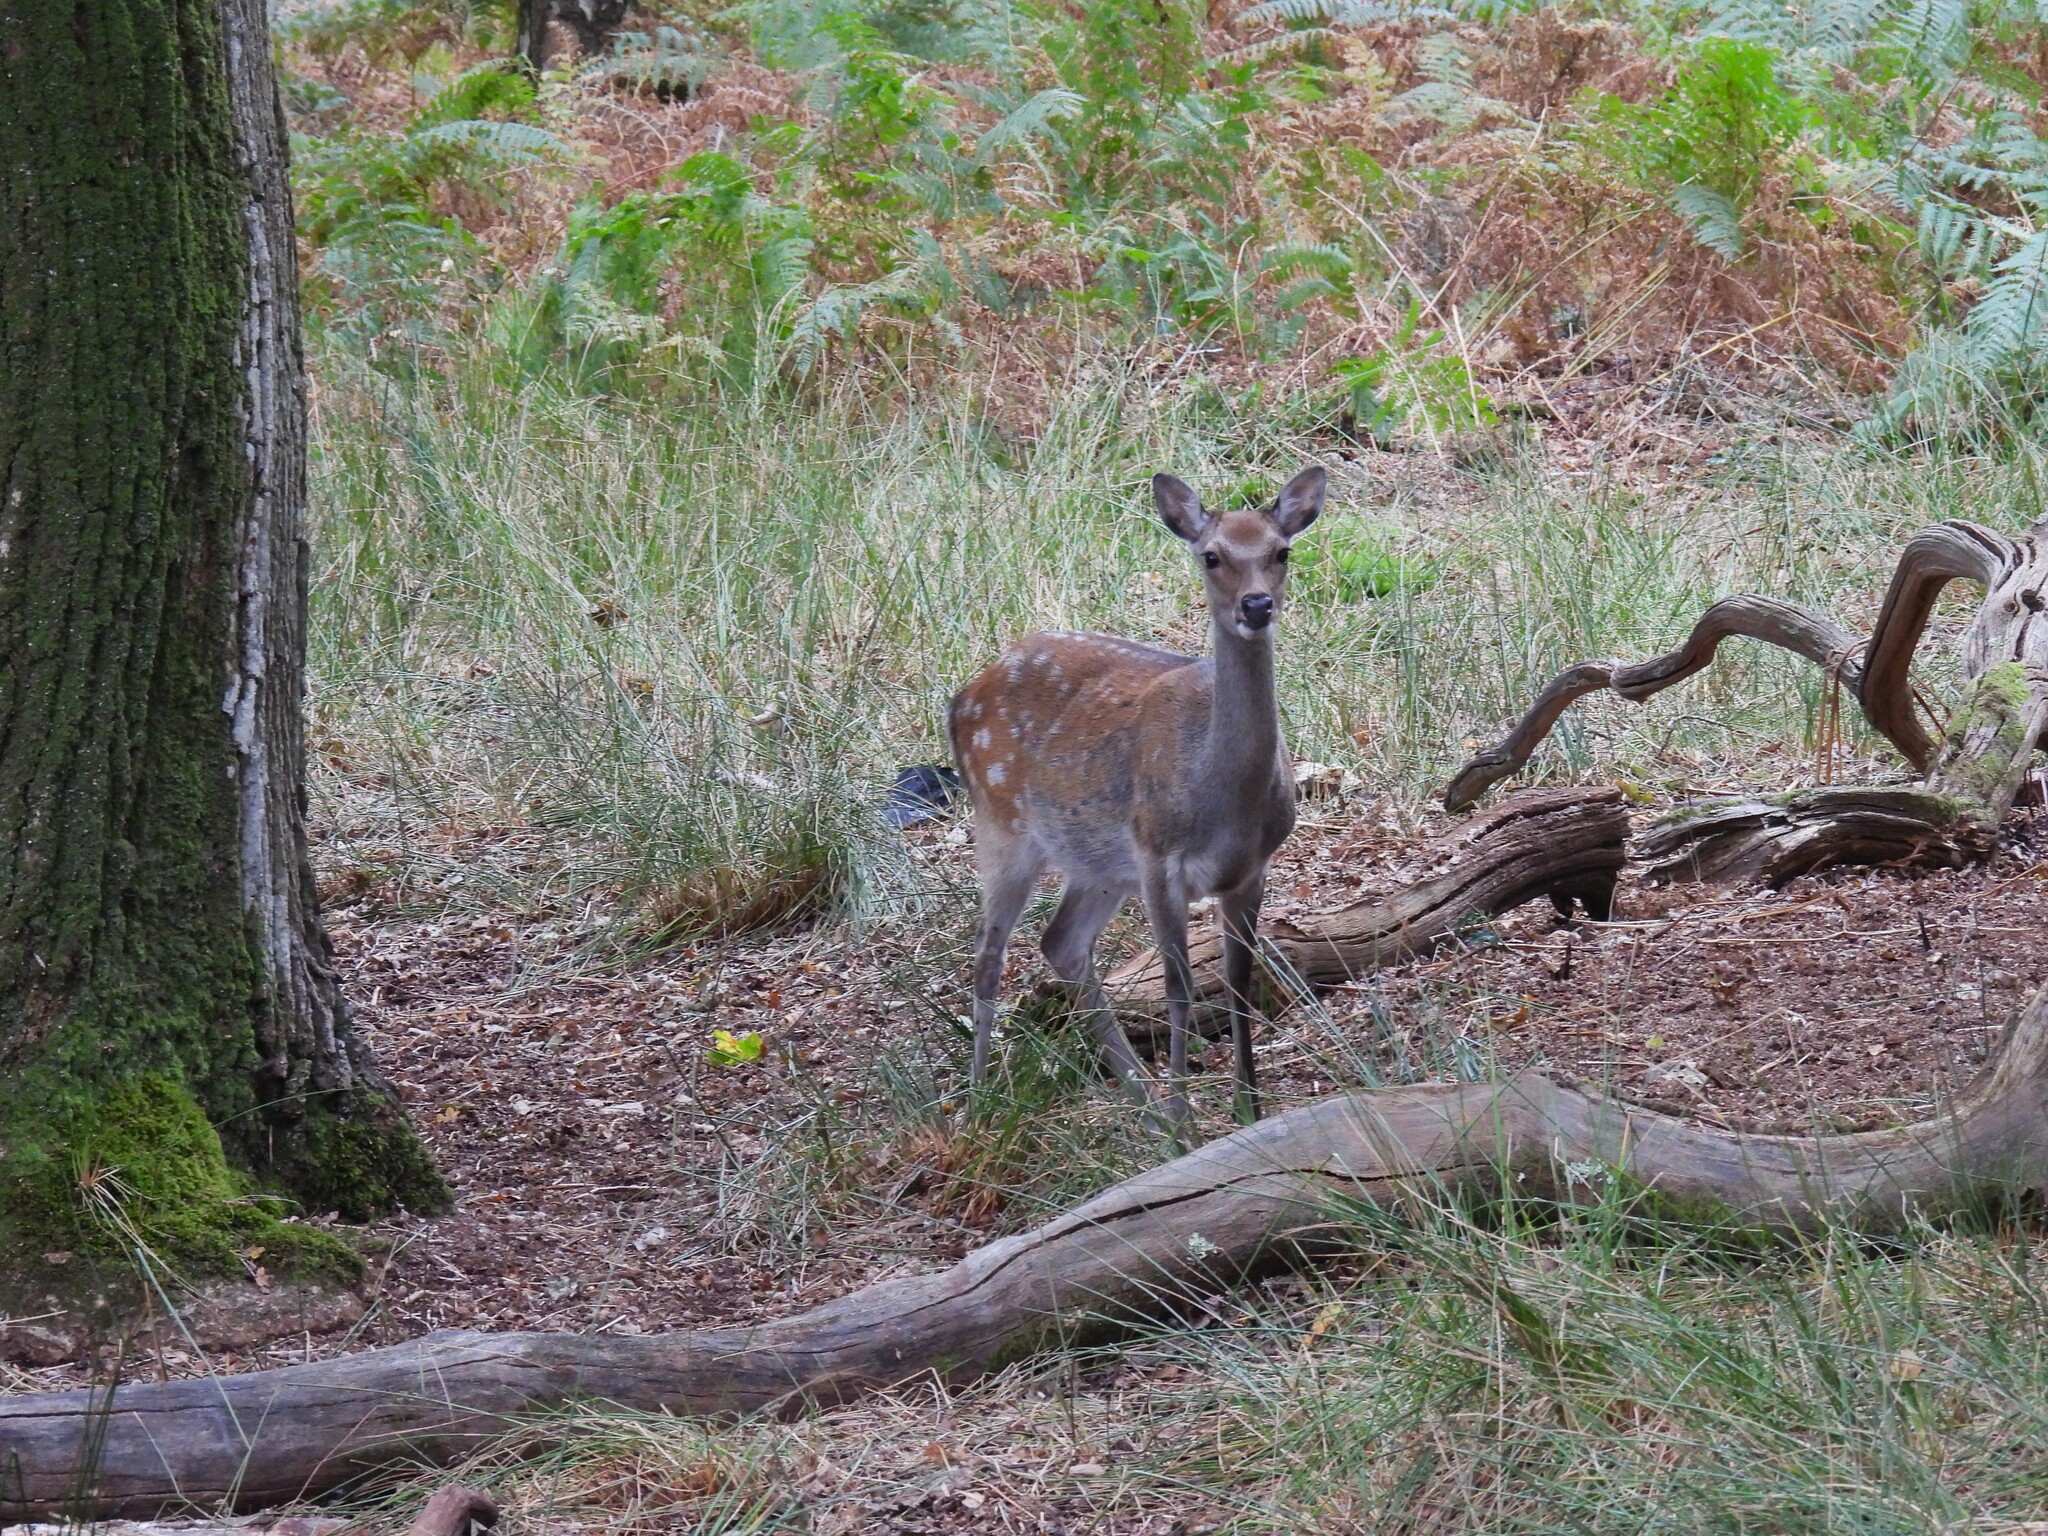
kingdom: Animalia
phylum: Chordata
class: Mammalia
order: Artiodactyla
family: Cervidae
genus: Cervus
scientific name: Cervus nippon
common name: Sika deer
